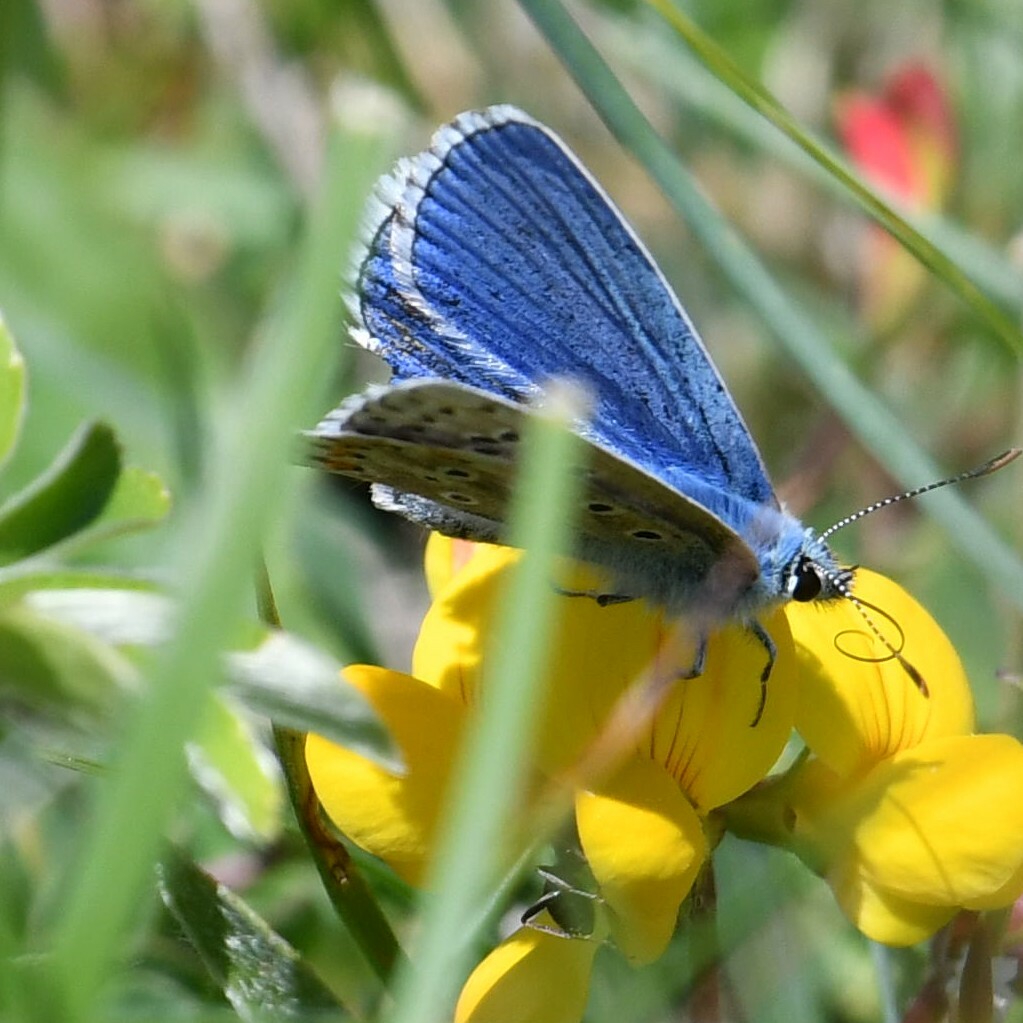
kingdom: Animalia
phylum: Arthropoda
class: Insecta
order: Lepidoptera
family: Lycaenidae
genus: Lysandra
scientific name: Lysandra bellargus
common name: Adonis blue
